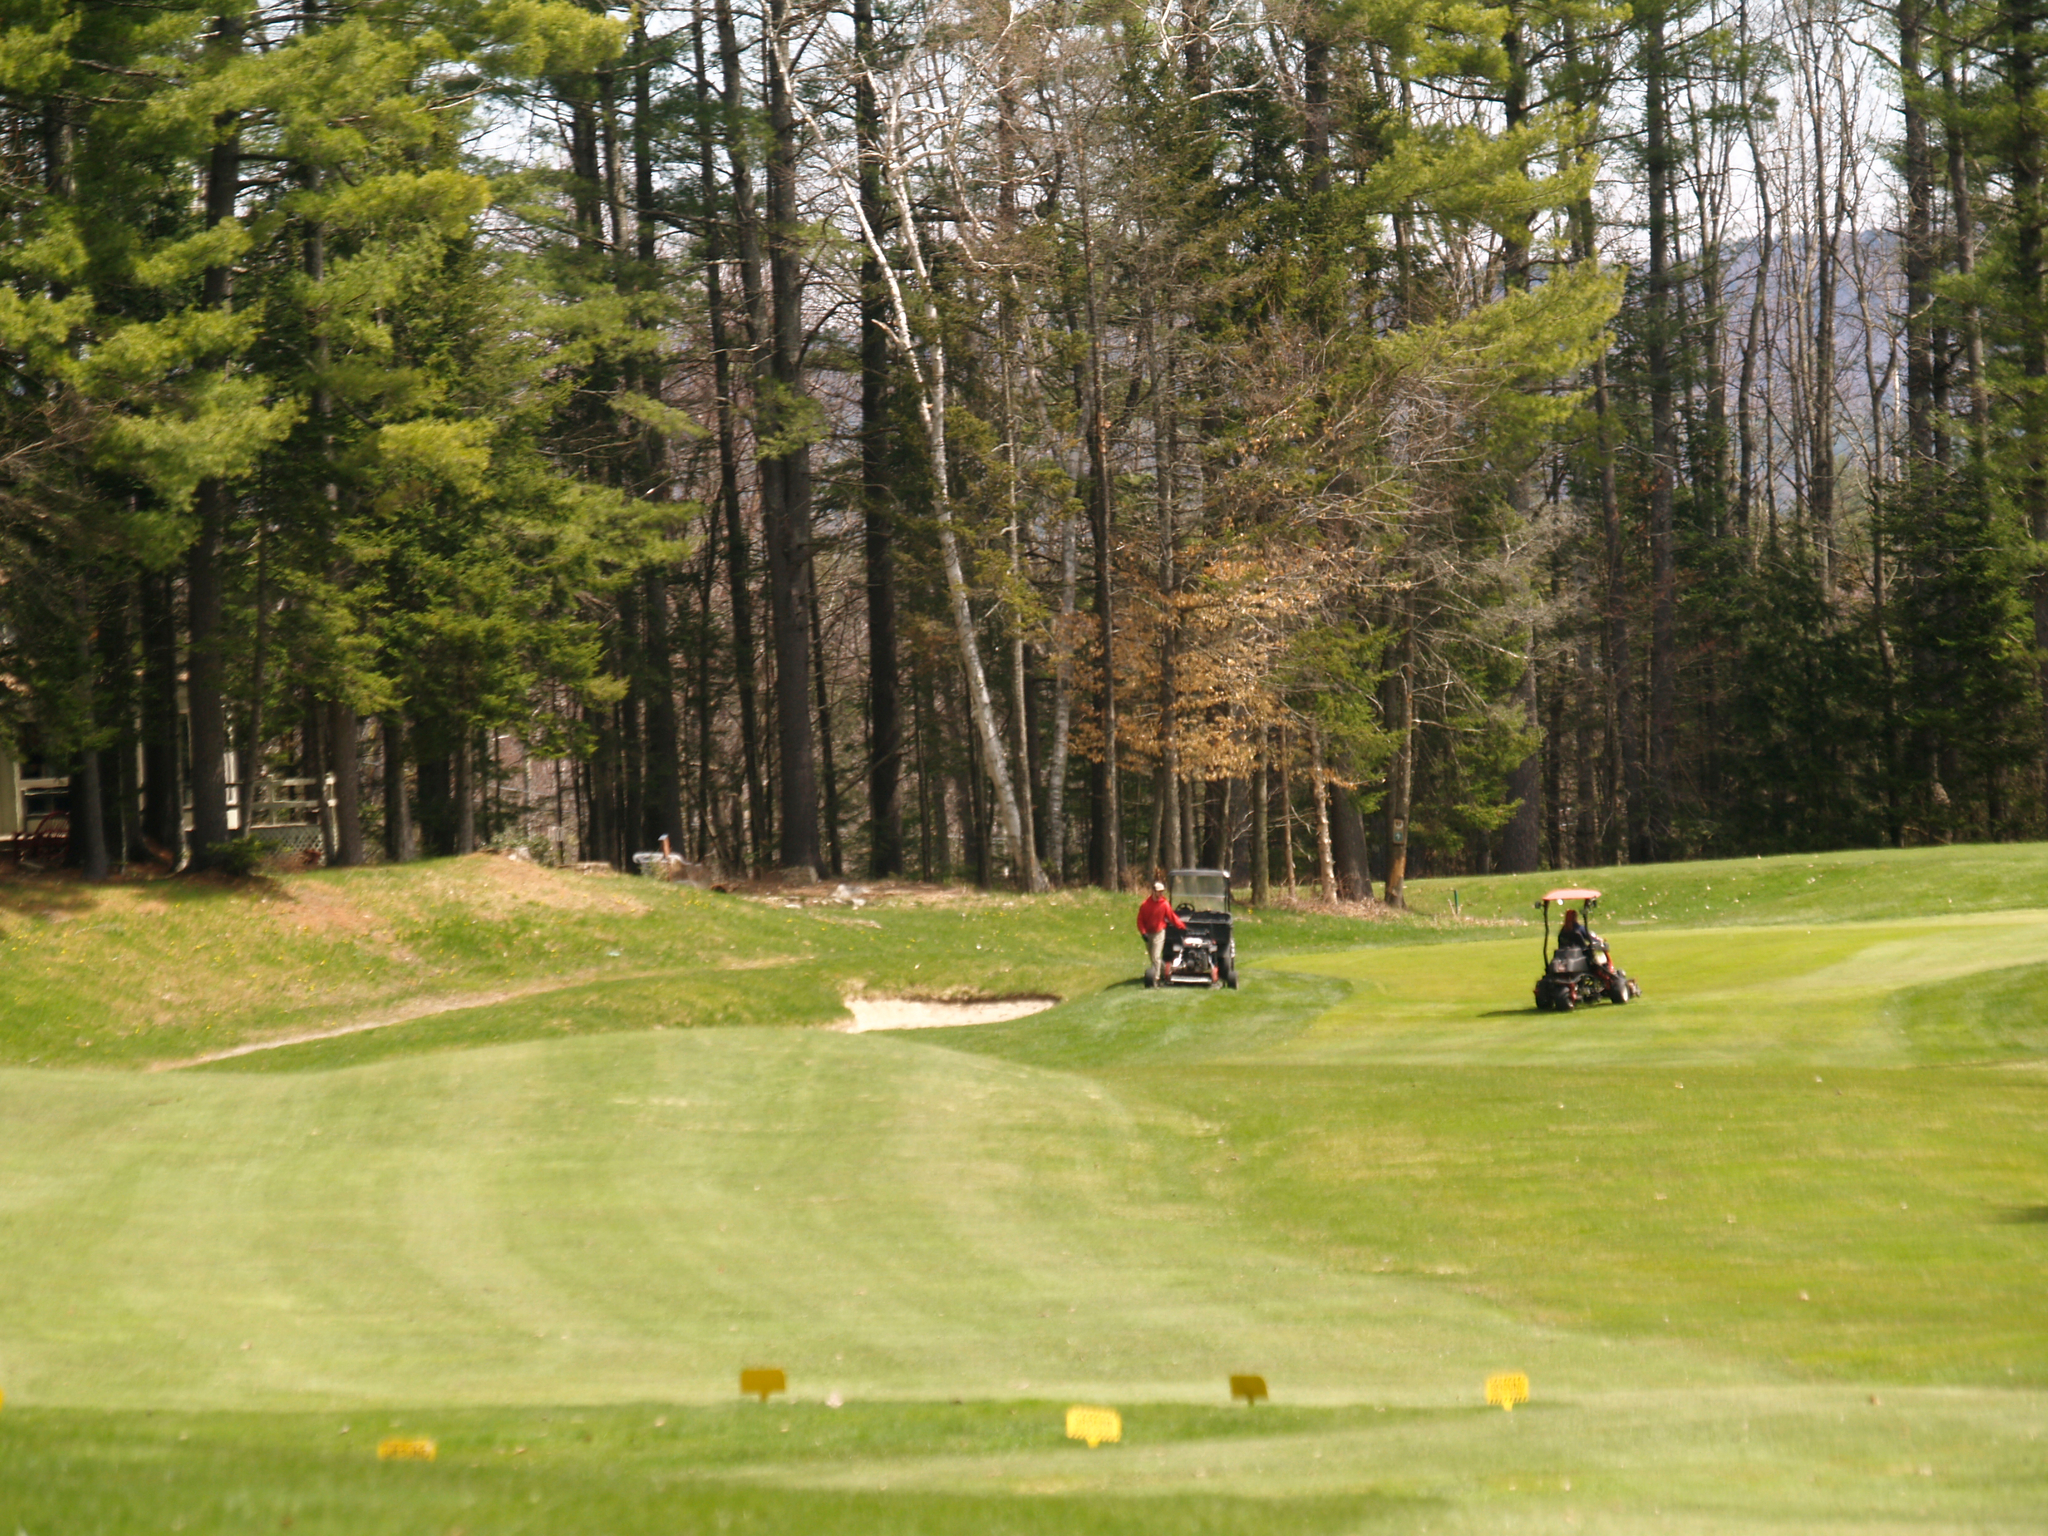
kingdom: Plantae
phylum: Tracheophyta
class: Pinopsida
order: Pinales
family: Pinaceae
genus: Pinus
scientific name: Pinus strobus
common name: Weymouth pine
